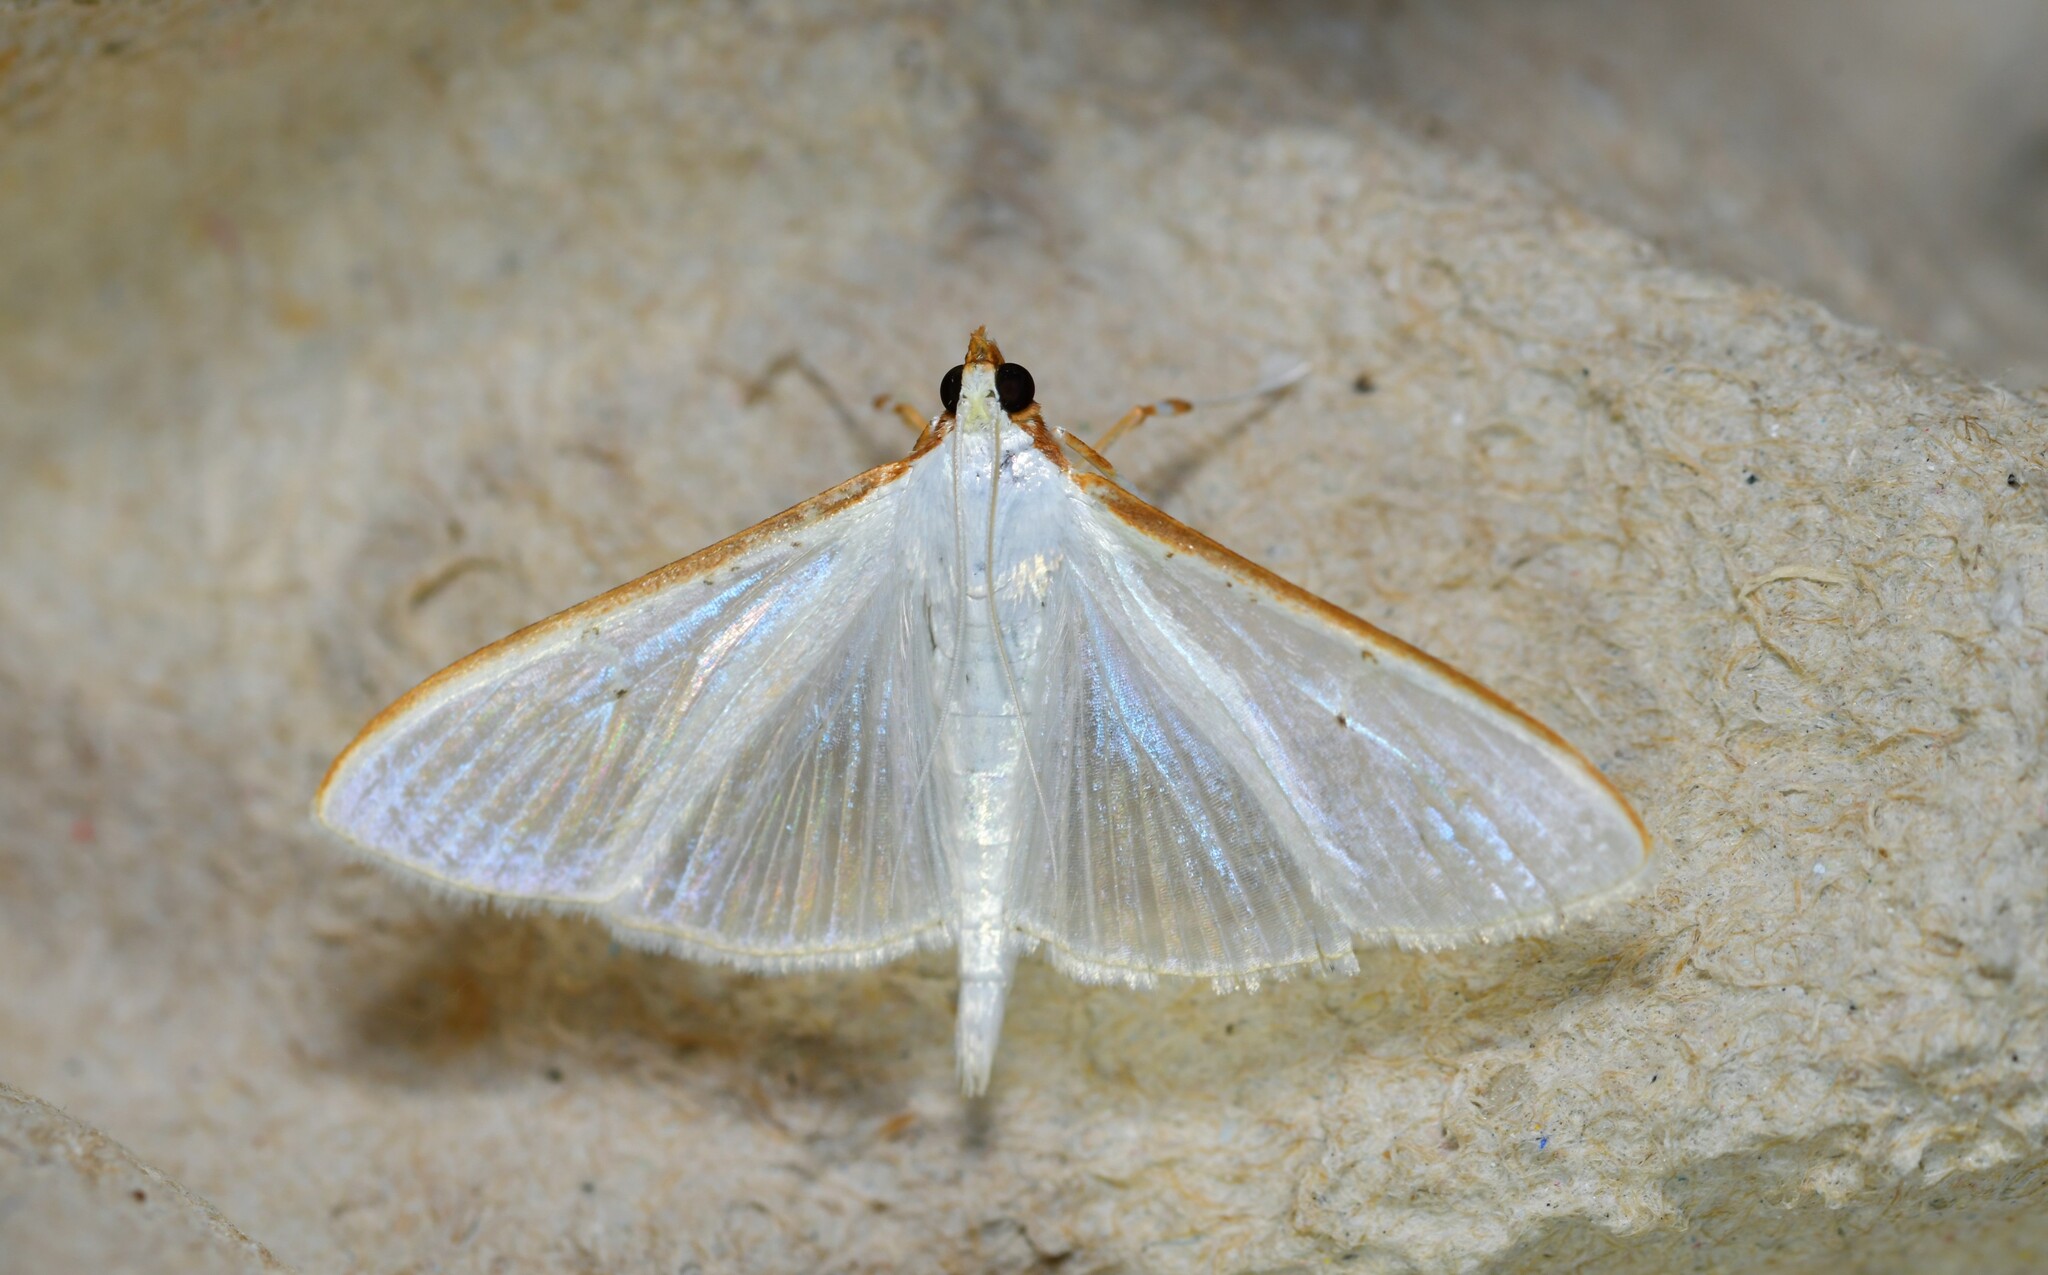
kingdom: Animalia
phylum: Arthropoda
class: Insecta
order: Lepidoptera
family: Crambidae
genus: Palpita
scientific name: Palpita vitrealis
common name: Olive-tree pearl
